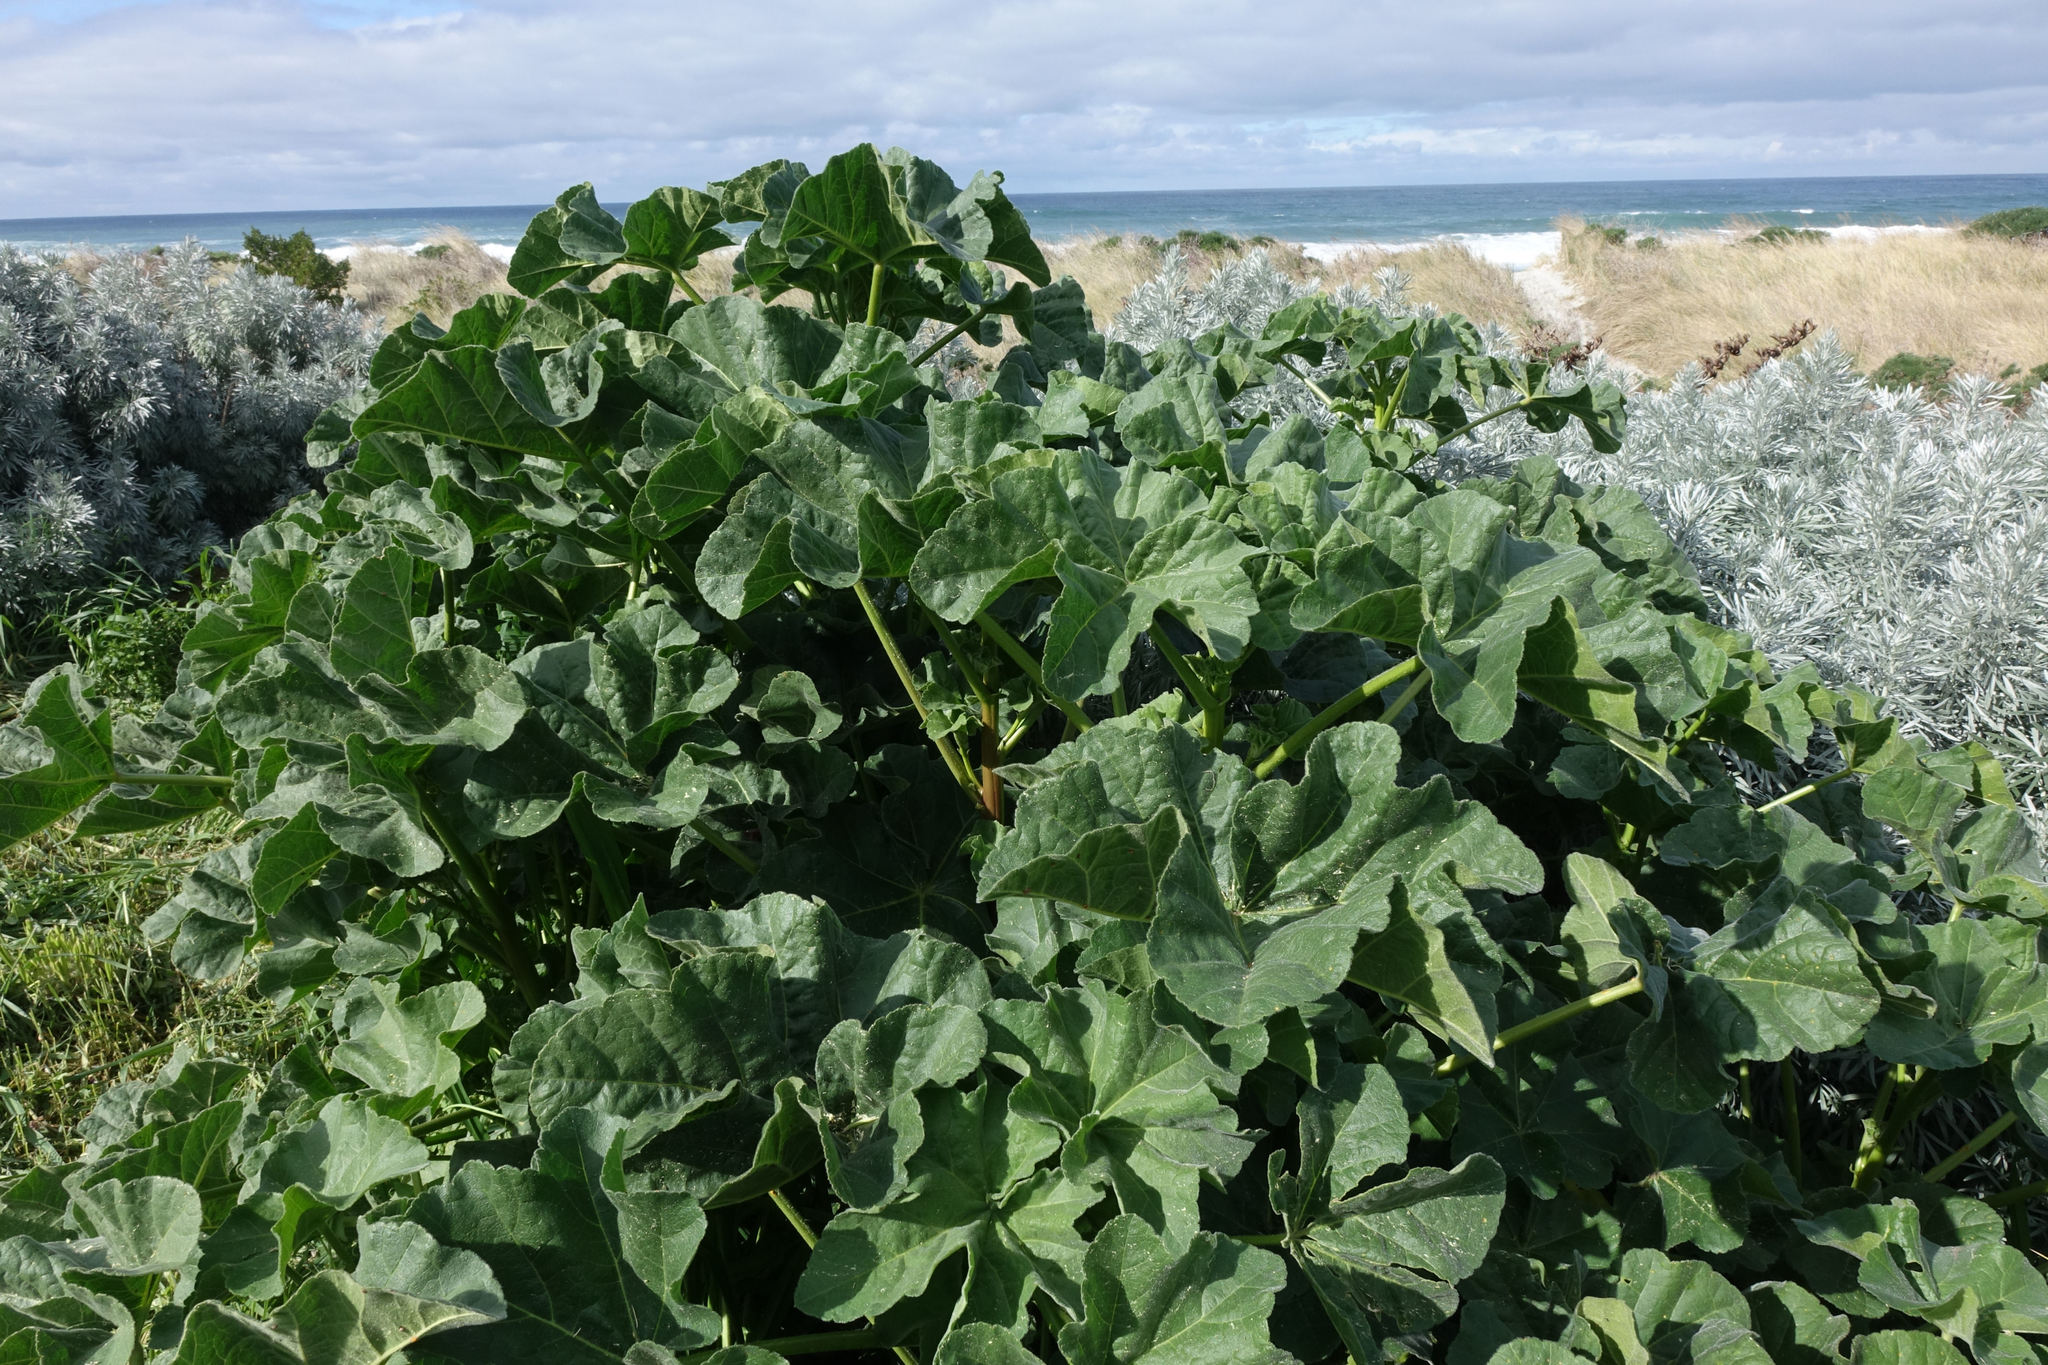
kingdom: Plantae
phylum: Tracheophyta
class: Magnoliopsida
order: Malvales
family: Malvaceae
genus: Malva
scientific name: Malva arborea
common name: Tree mallow
